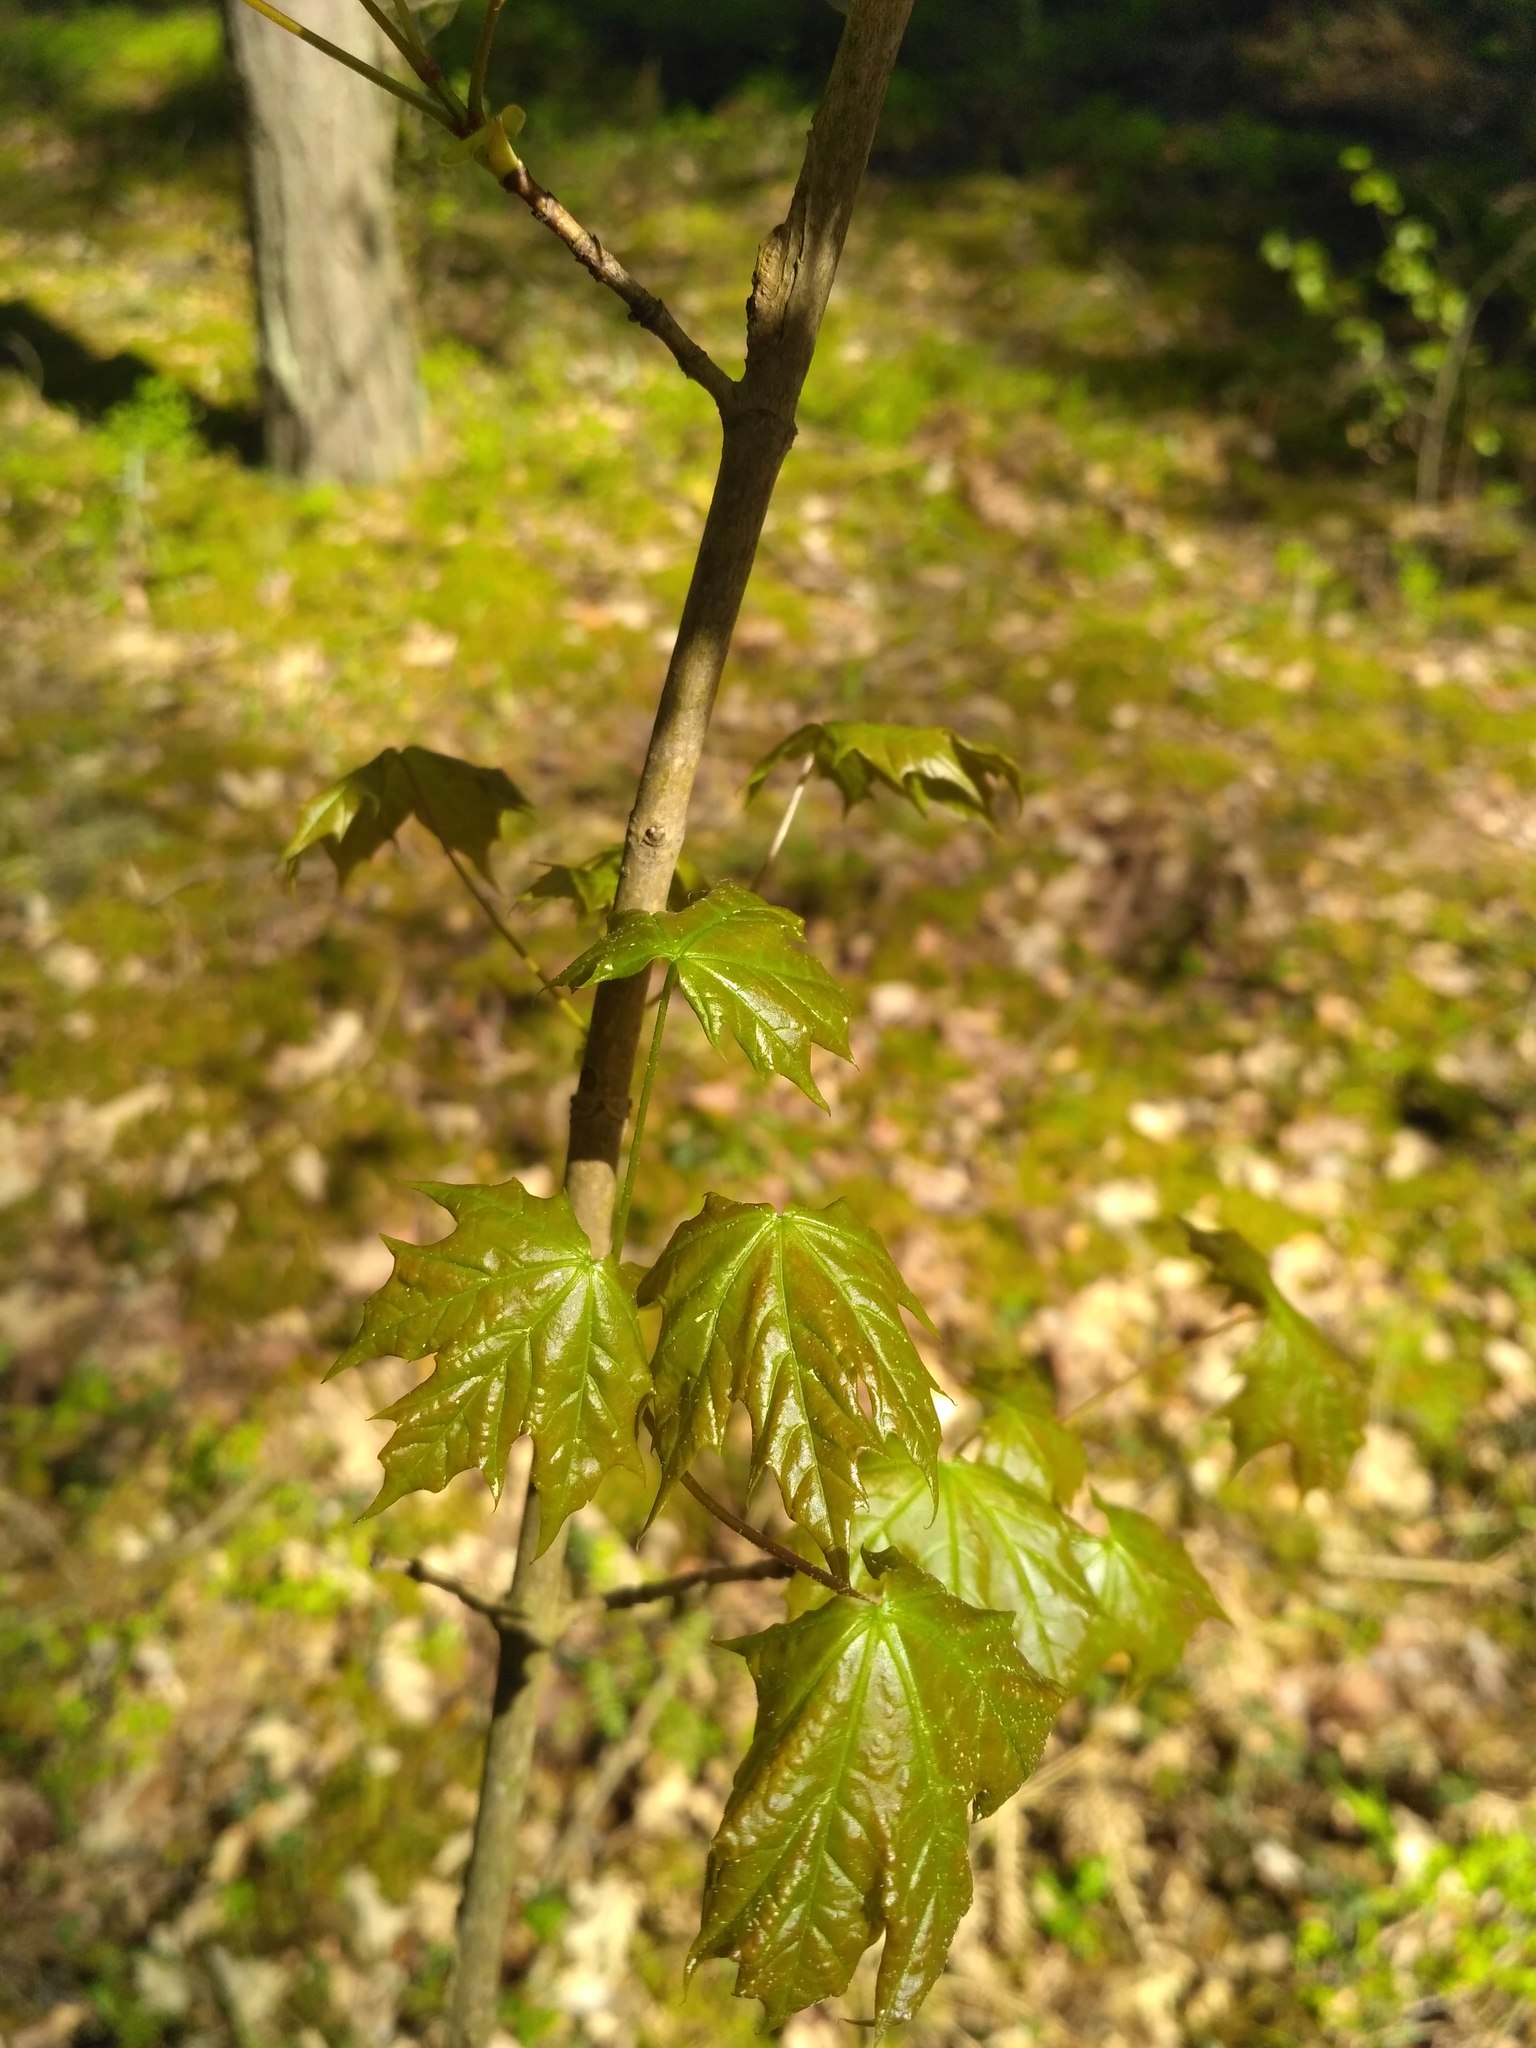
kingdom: Plantae
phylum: Tracheophyta
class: Magnoliopsida
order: Sapindales
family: Sapindaceae
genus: Acer
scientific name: Acer platanoides
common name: Norway maple
